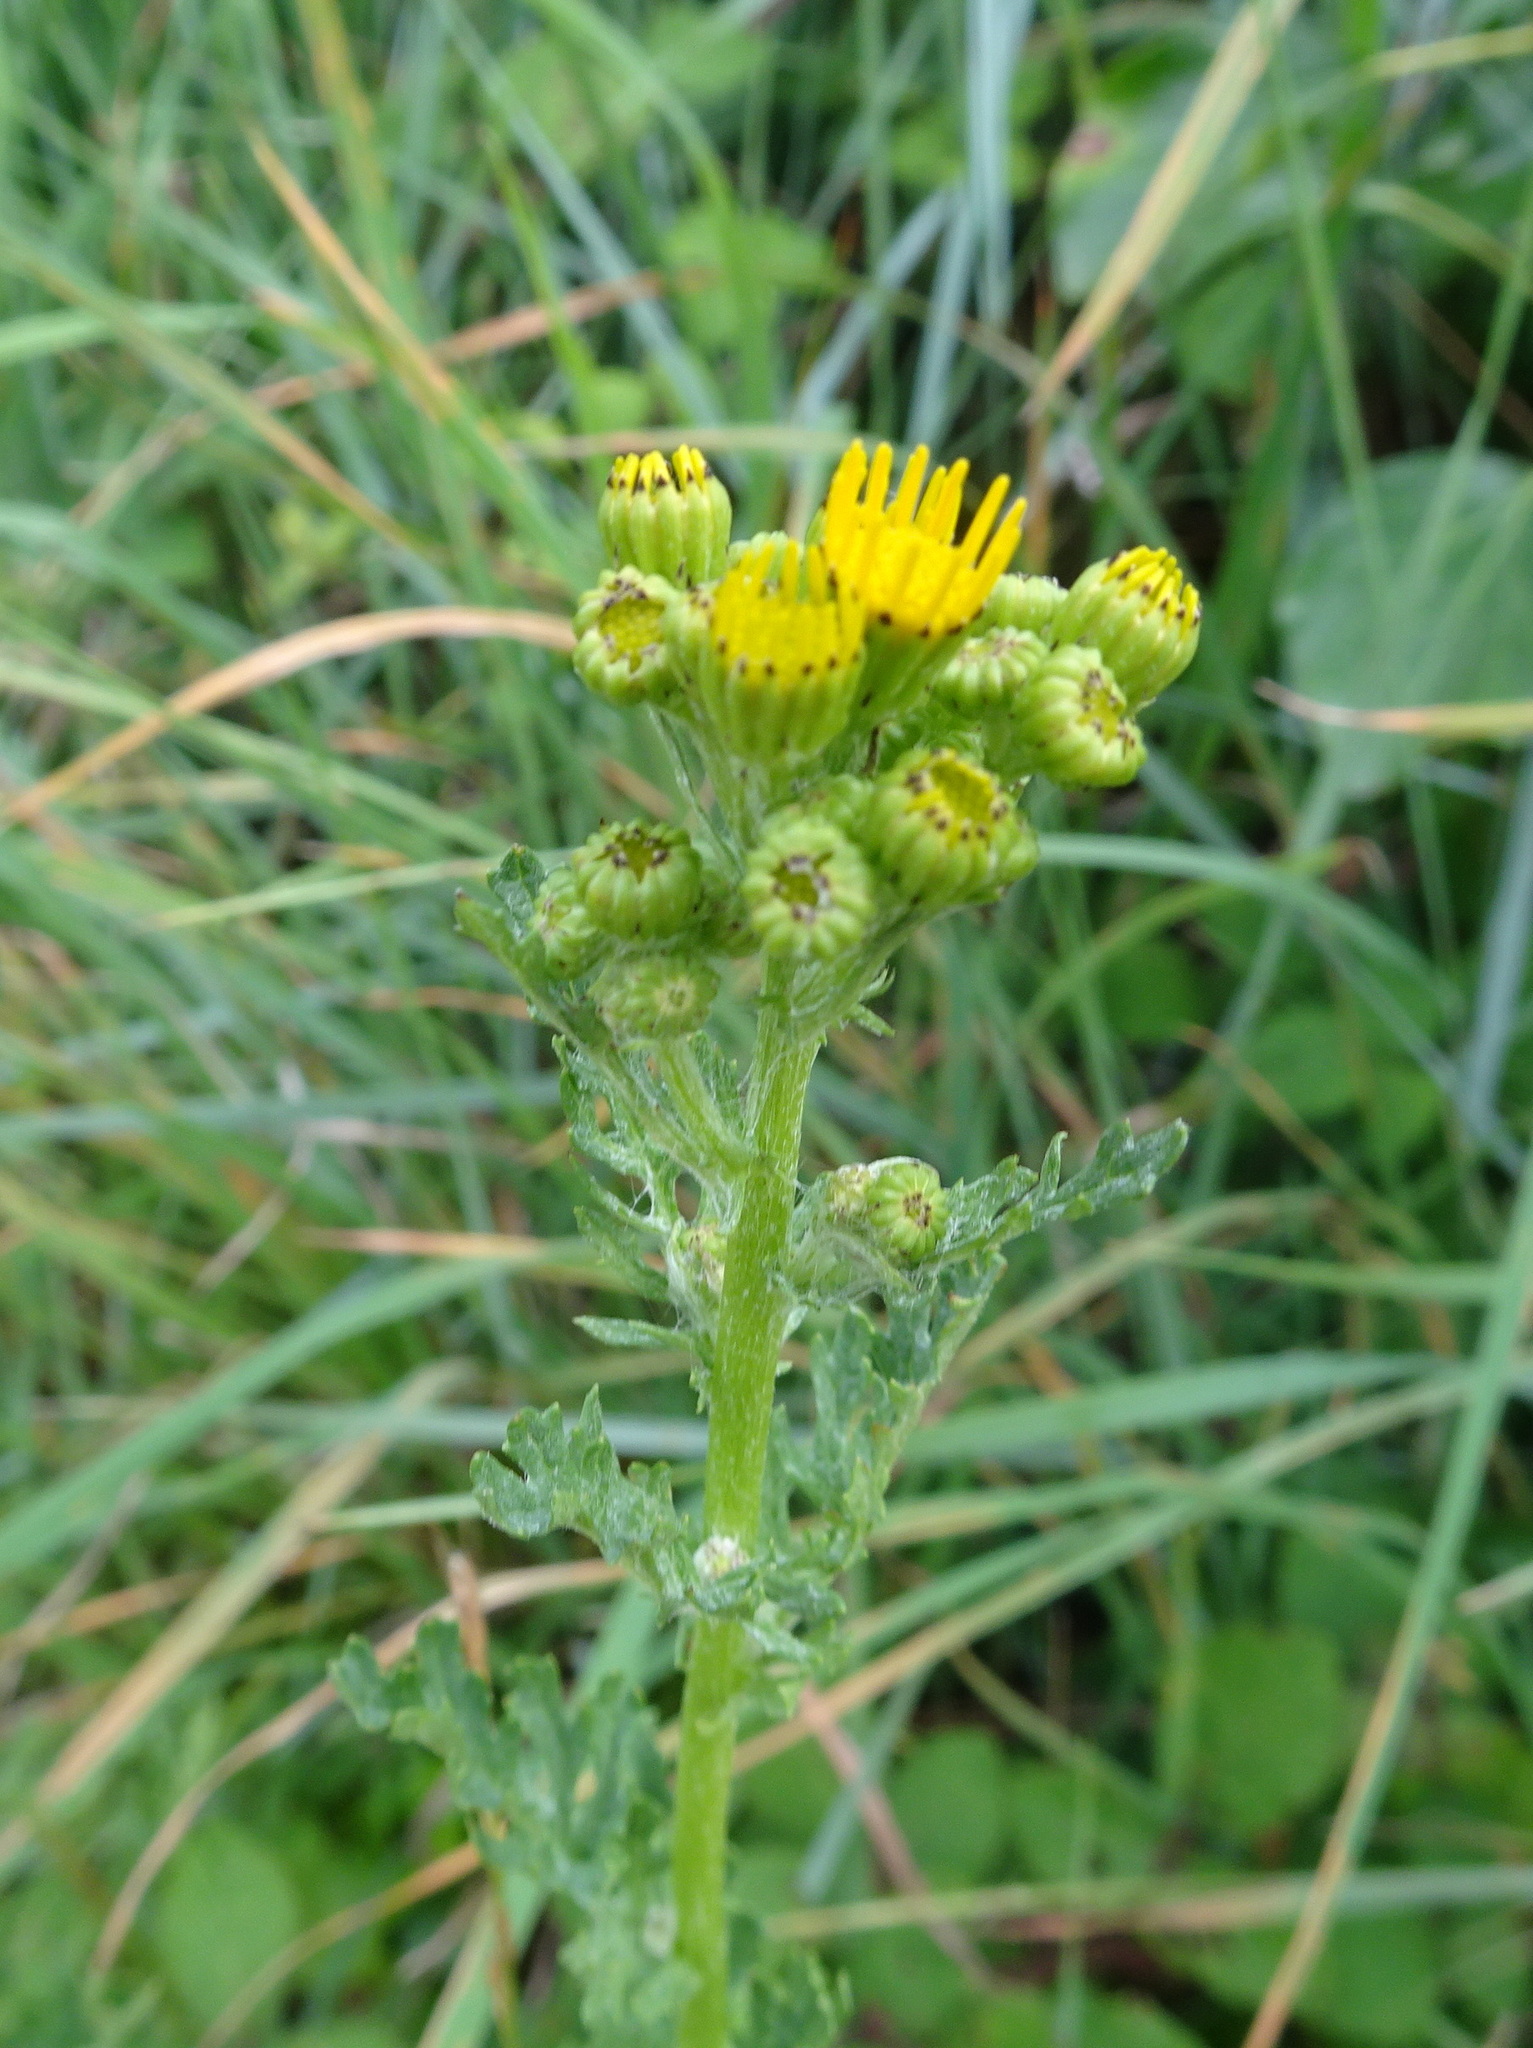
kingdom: Plantae
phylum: Tracheophyta
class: Magnoliopsida
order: Asterales
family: Asteraceae
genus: Jacobaea
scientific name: Jacobaea vulgaris
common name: Stinking willie
